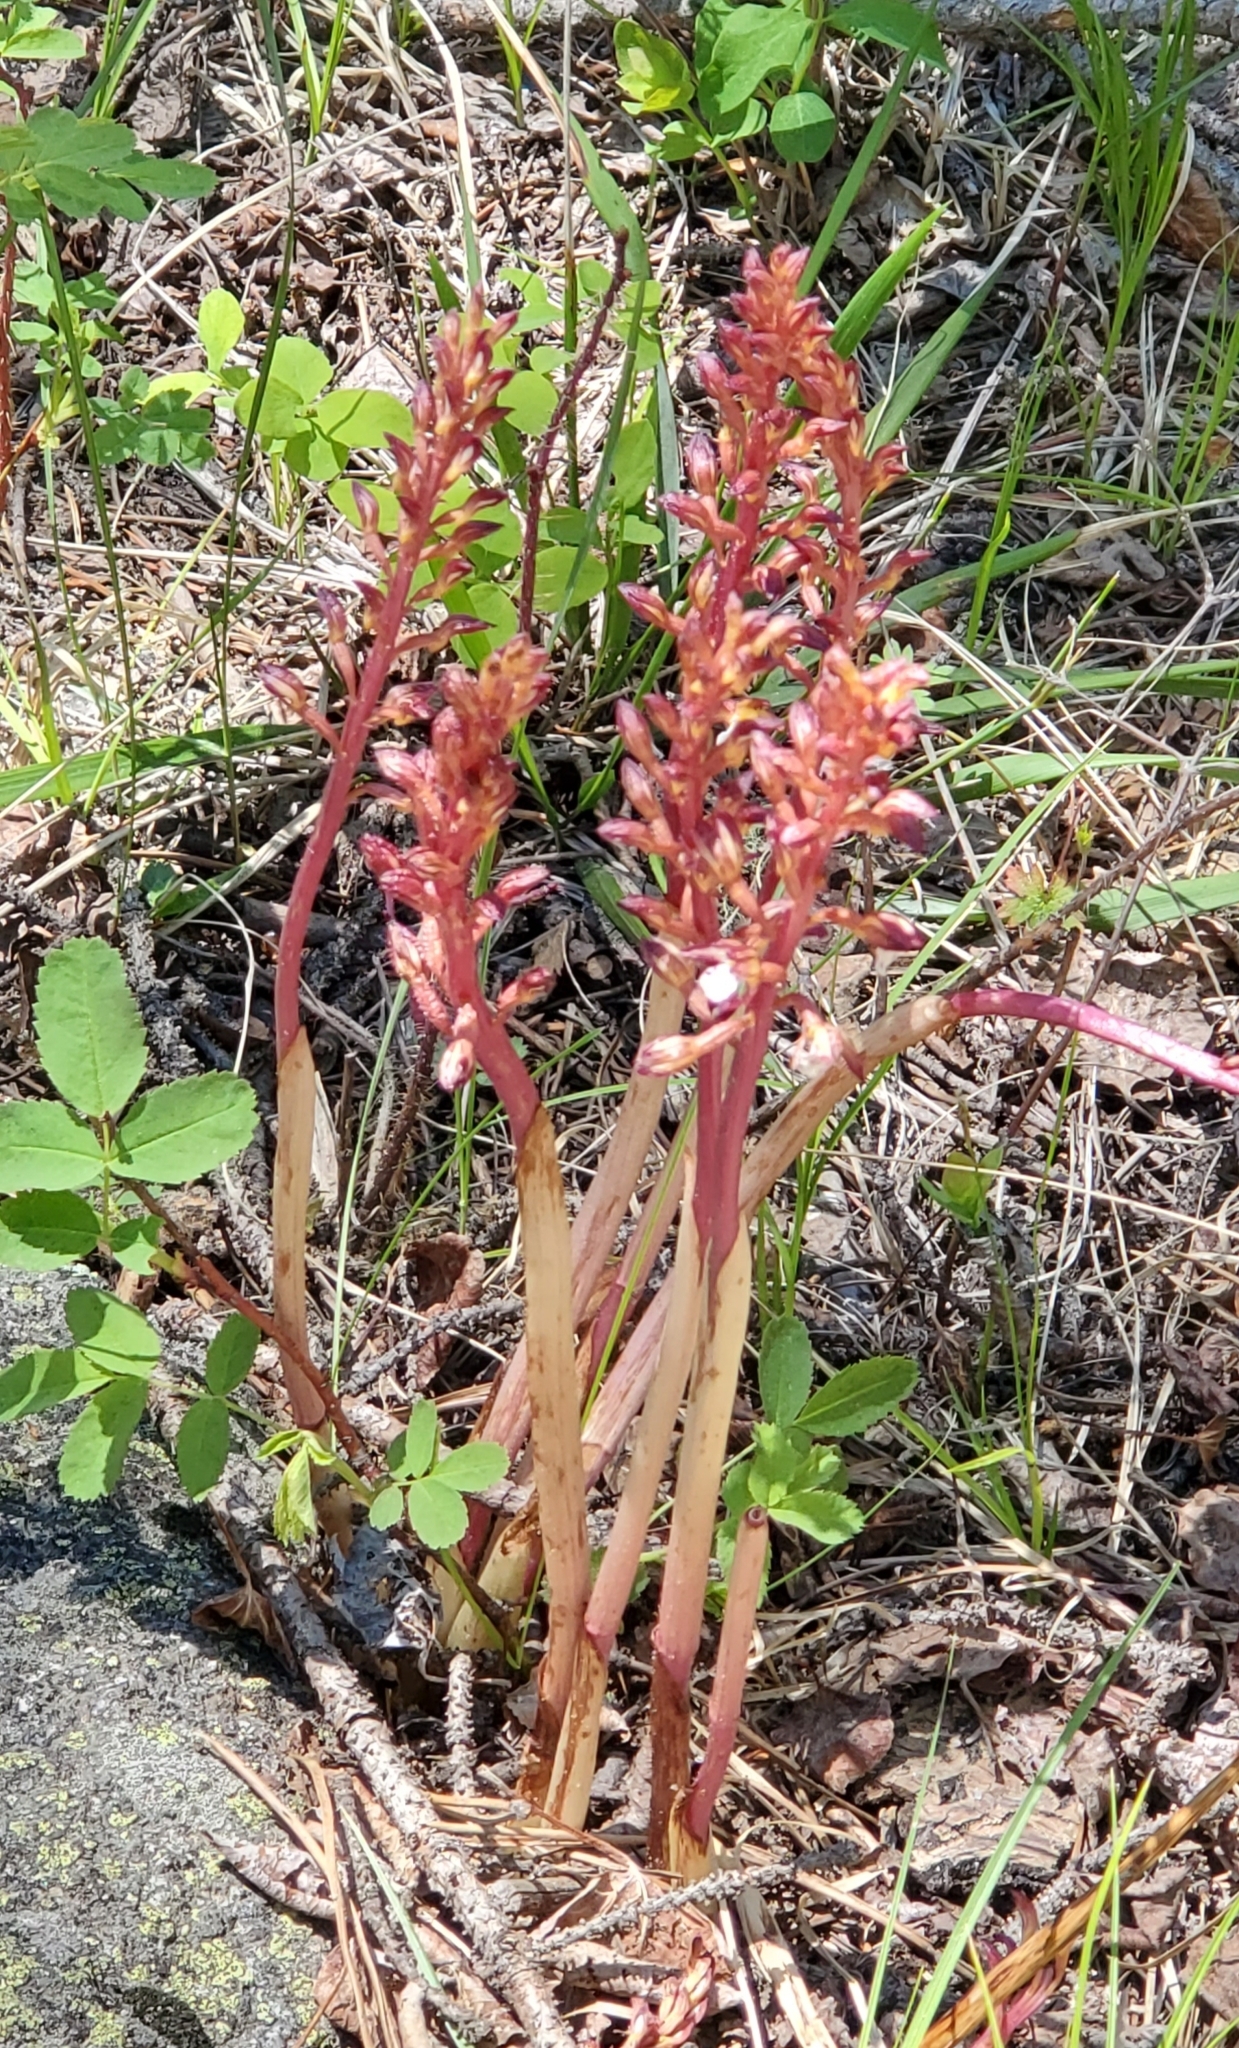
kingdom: Plantae
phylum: Tracheophyta
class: Liliopsida
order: Asparagales
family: Orchidaceae
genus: Corallorhiza
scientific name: Corallorhiza maculata
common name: Spotted coralroot
